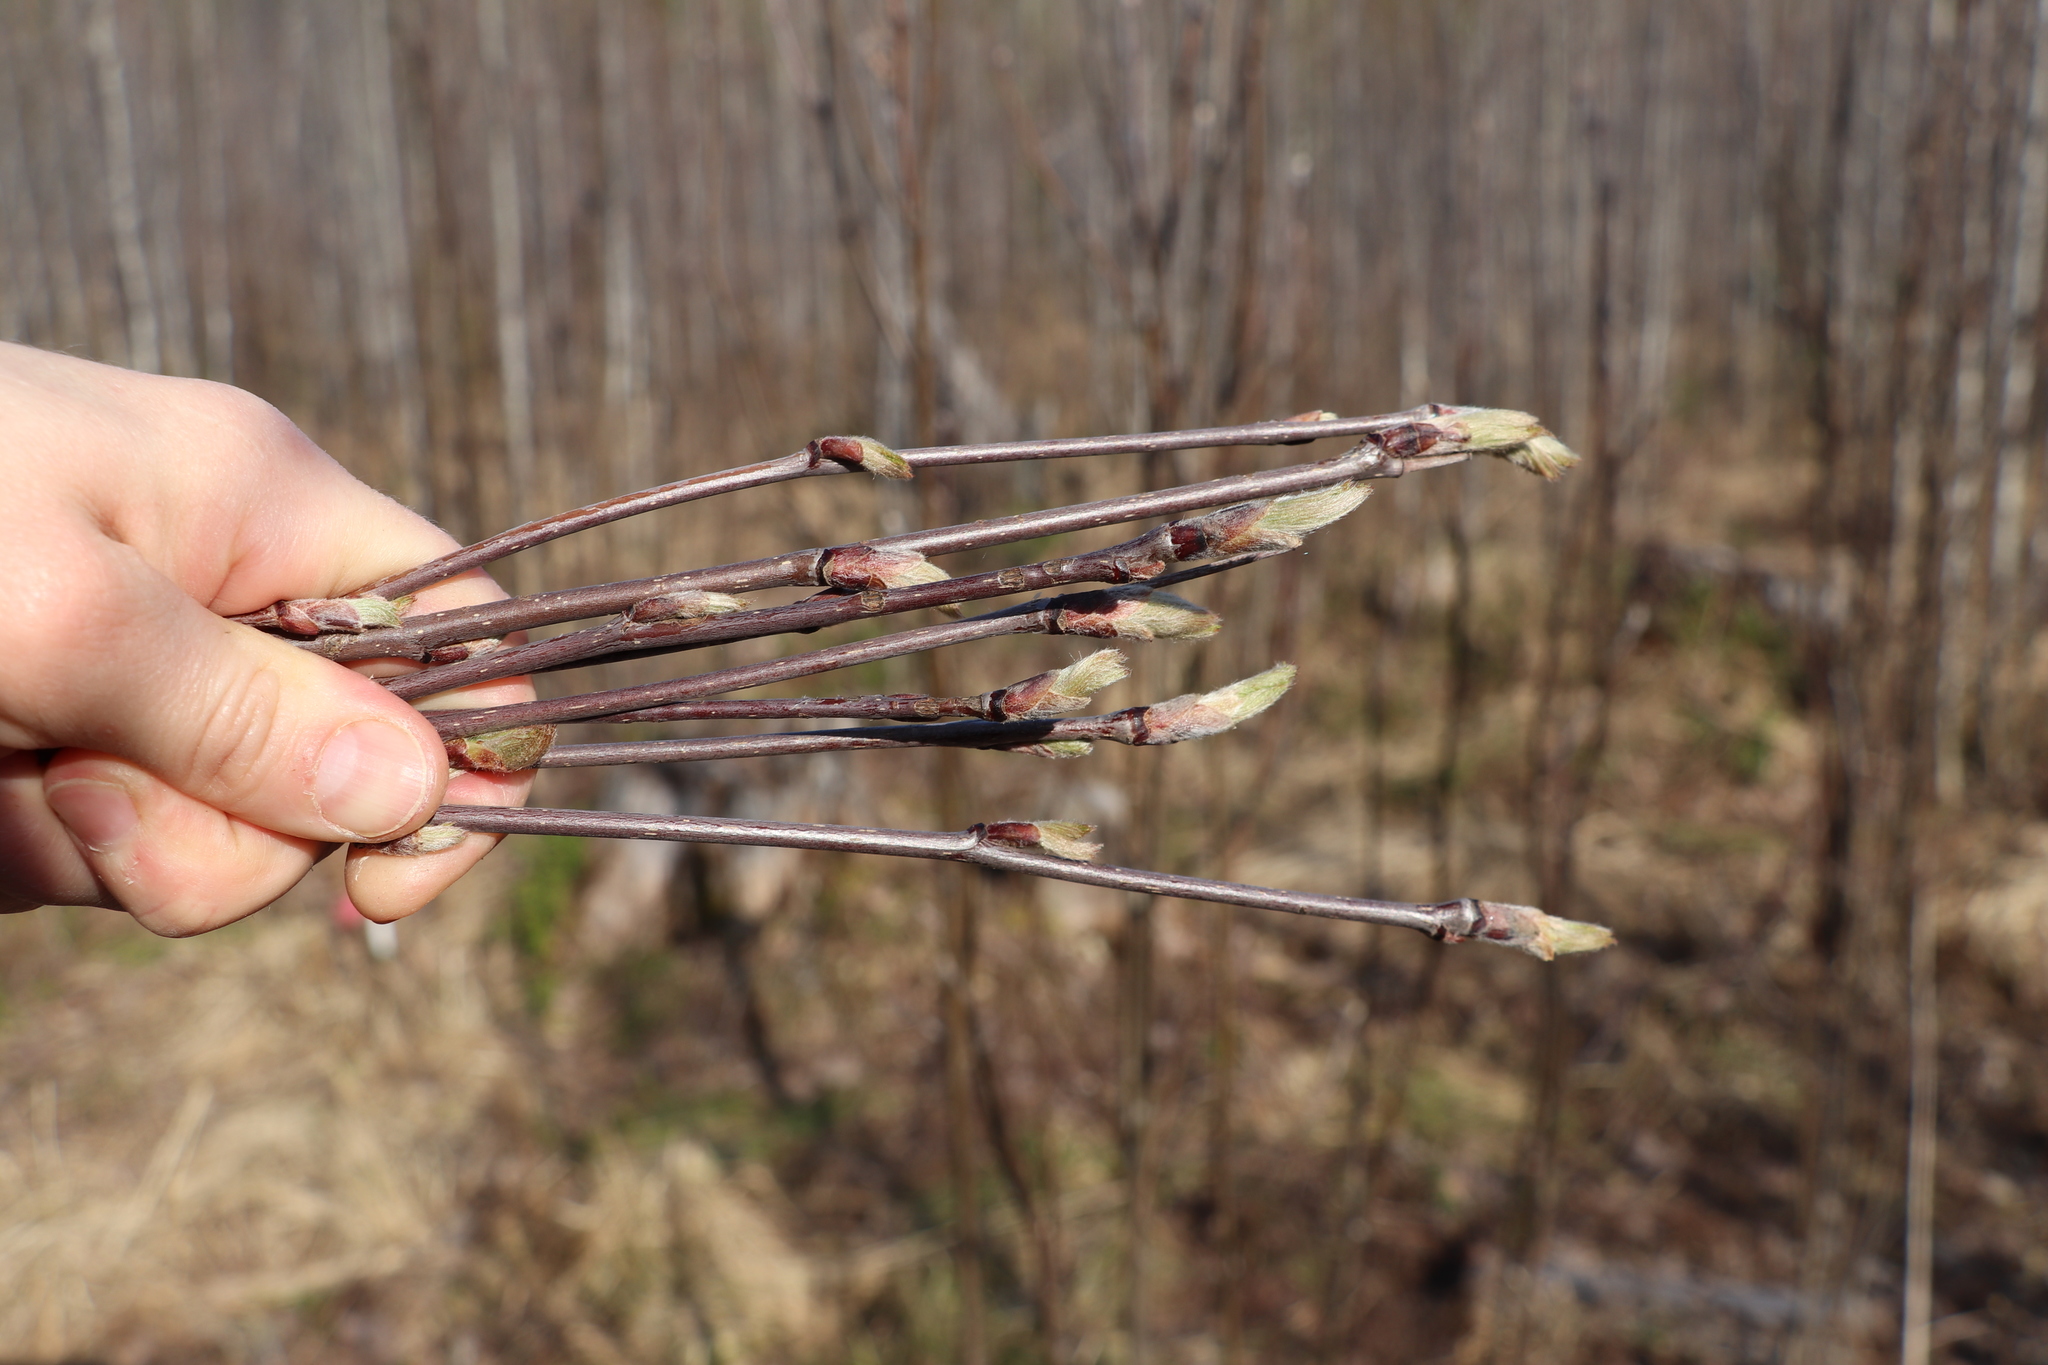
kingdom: Plantae
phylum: Tracheophyta
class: Magnoliopsida
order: Rosales
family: Rosaceae
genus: Sorbus
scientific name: Sorbus aucuparia
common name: Rowan
